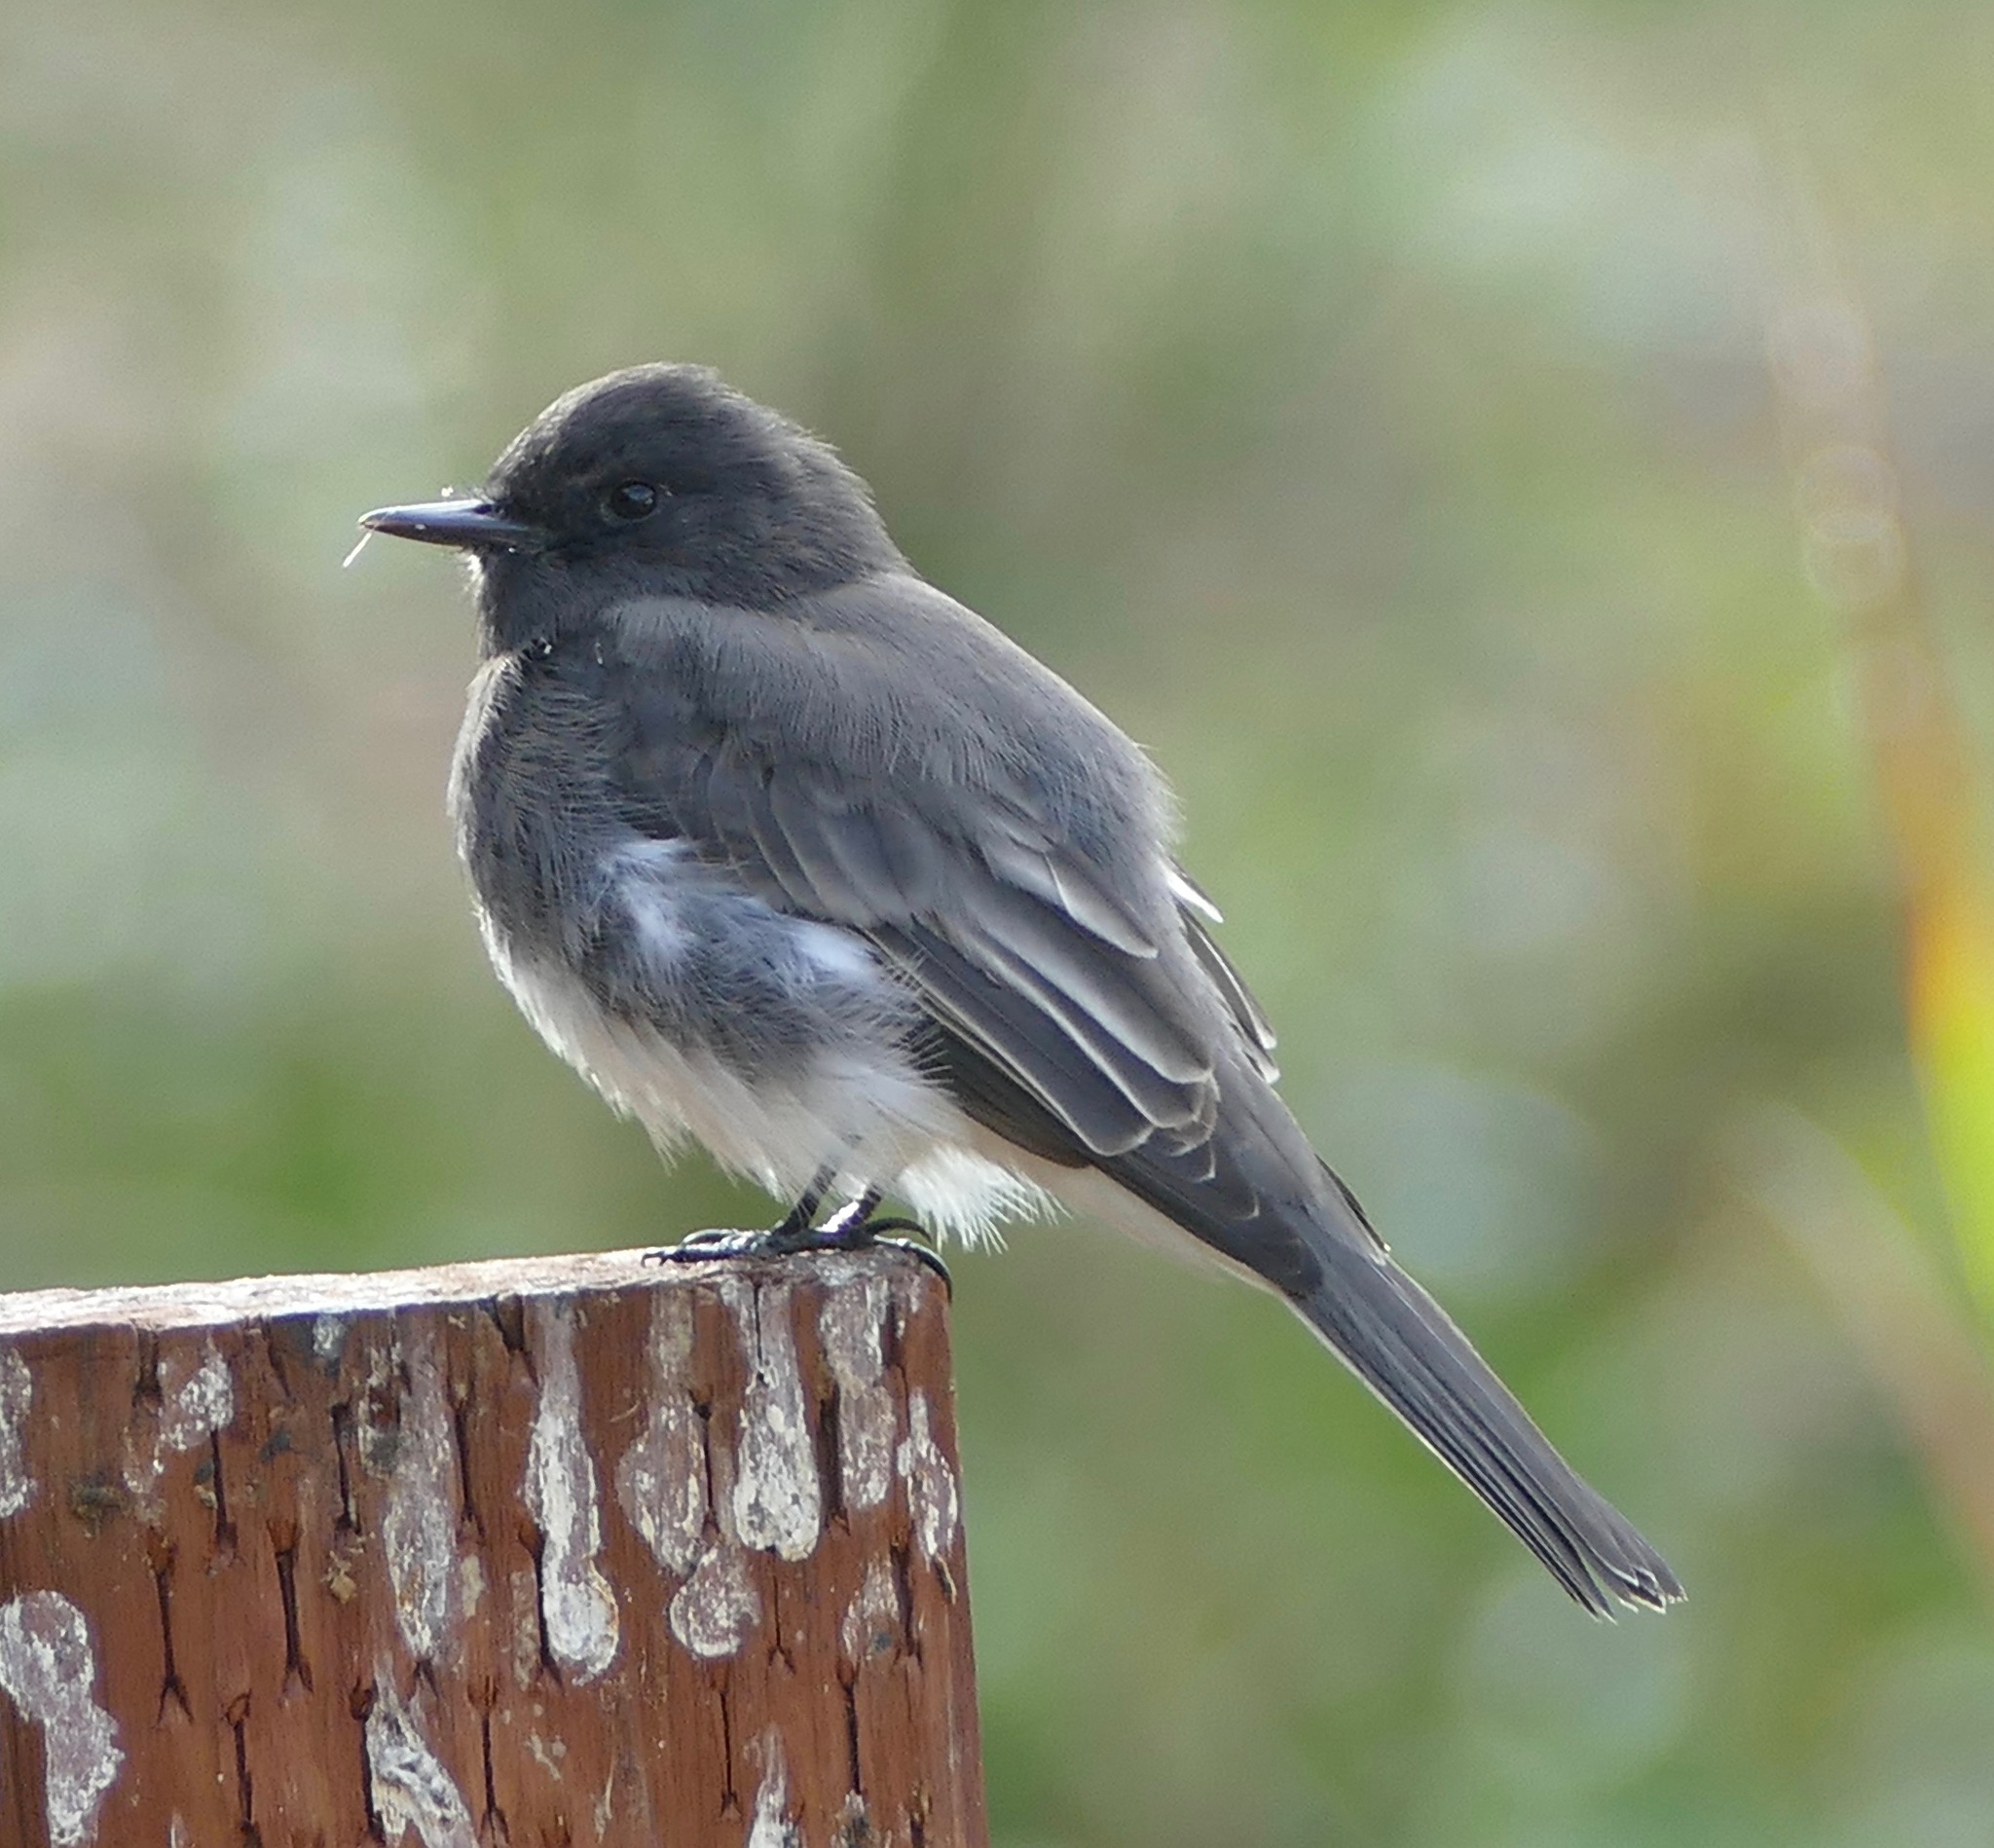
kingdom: Animalia
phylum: Chordata
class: Aves
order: Passeriformes
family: Tyrannidae
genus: Sayornis
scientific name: Sayornis nigricans
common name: Black phoebe
